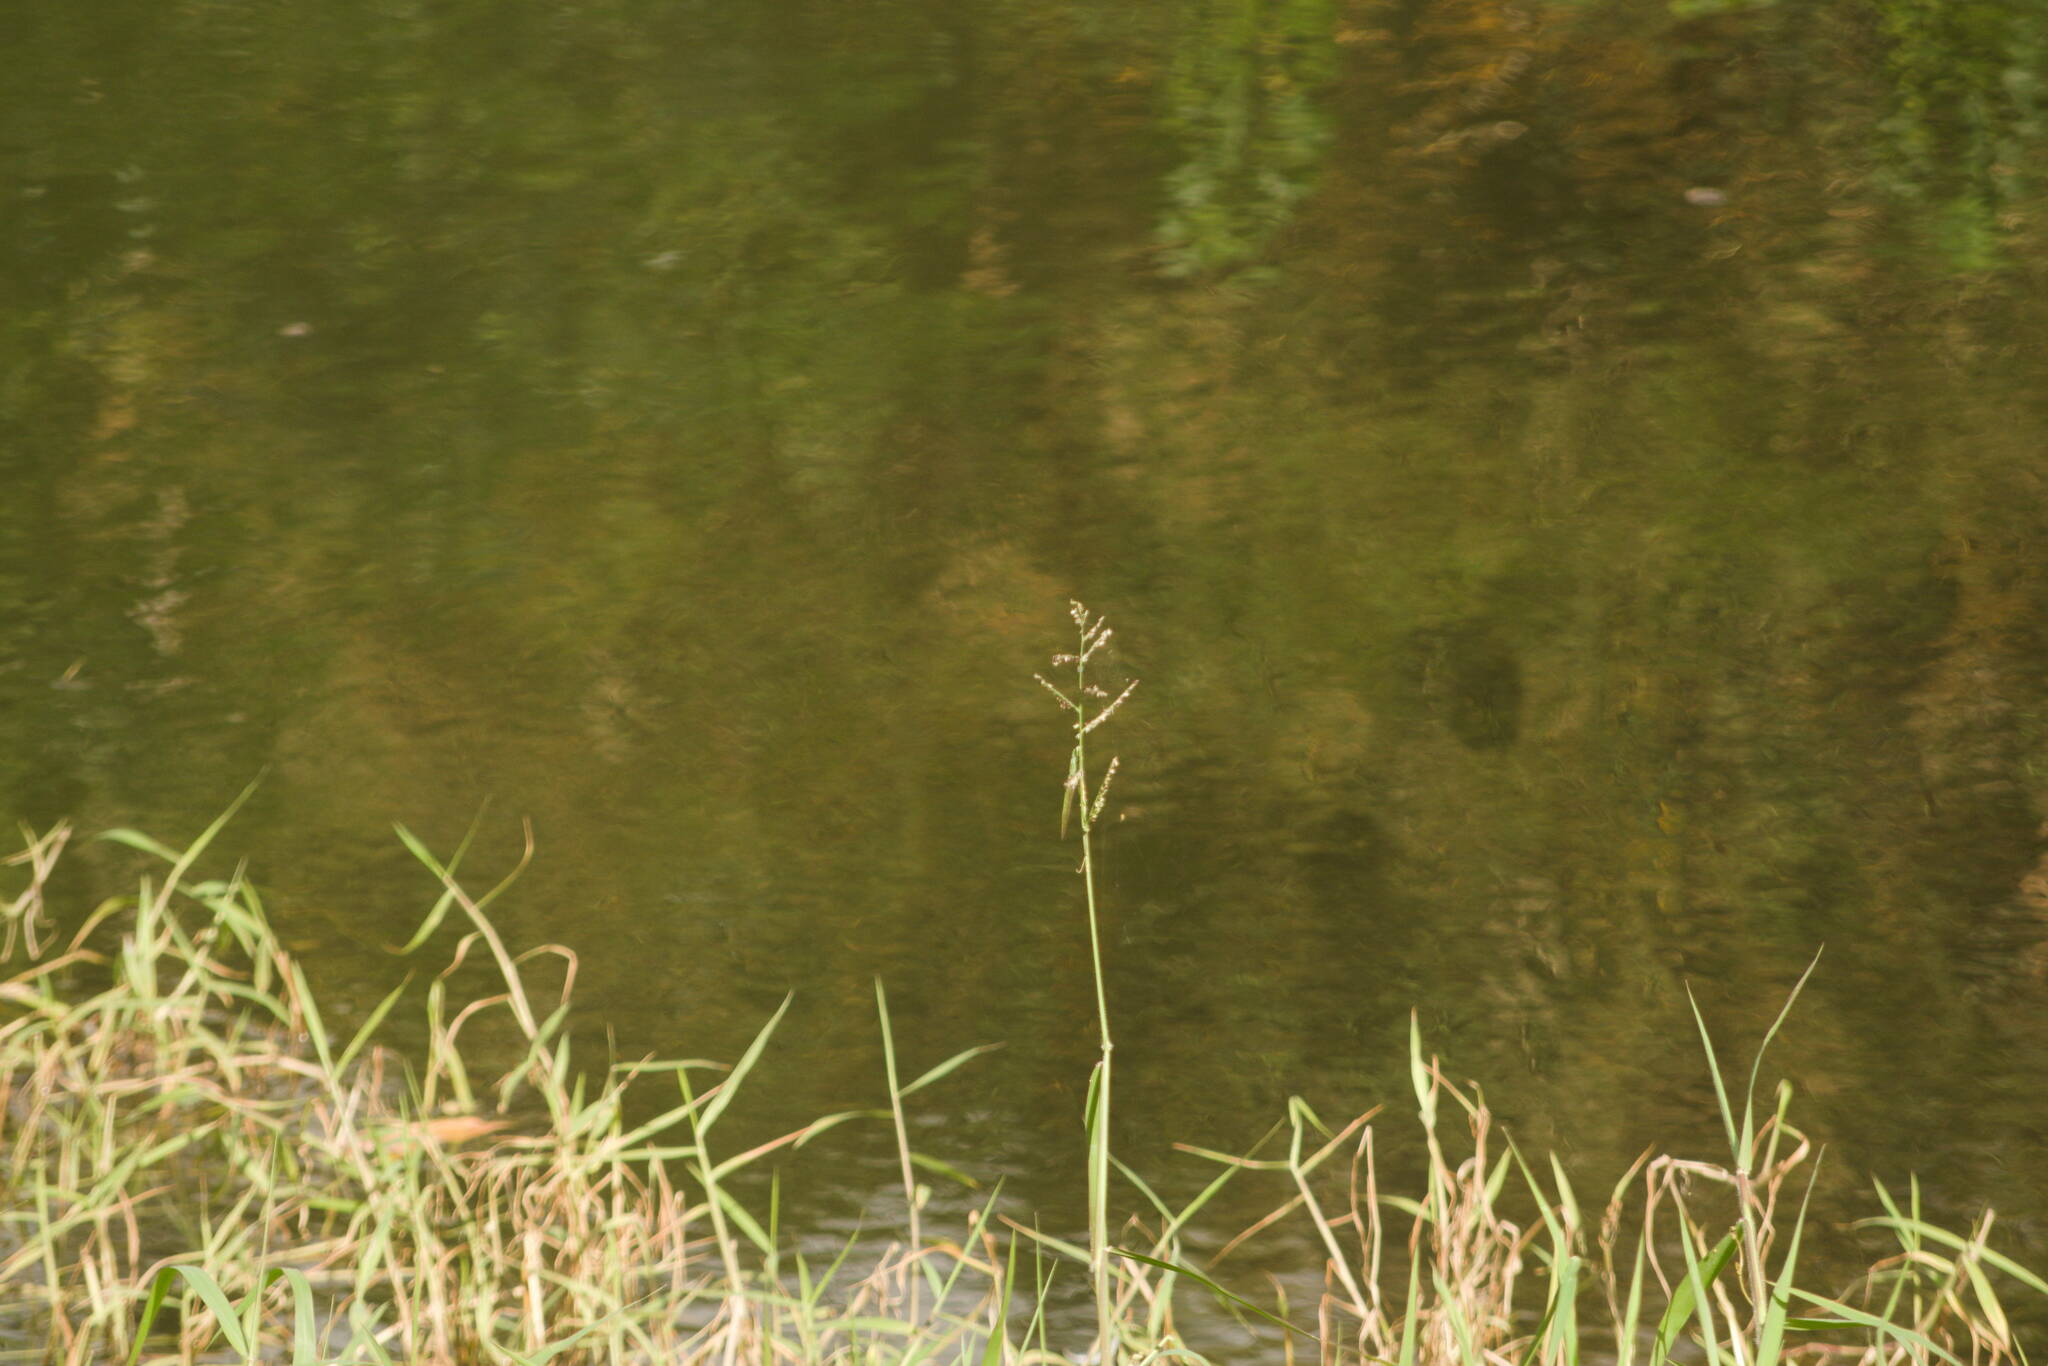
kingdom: Plantae
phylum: Tracheophyta
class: Liliopsida
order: Poales
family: Poaceae
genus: Urochloa
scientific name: Urochloa mutica
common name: Para grass
